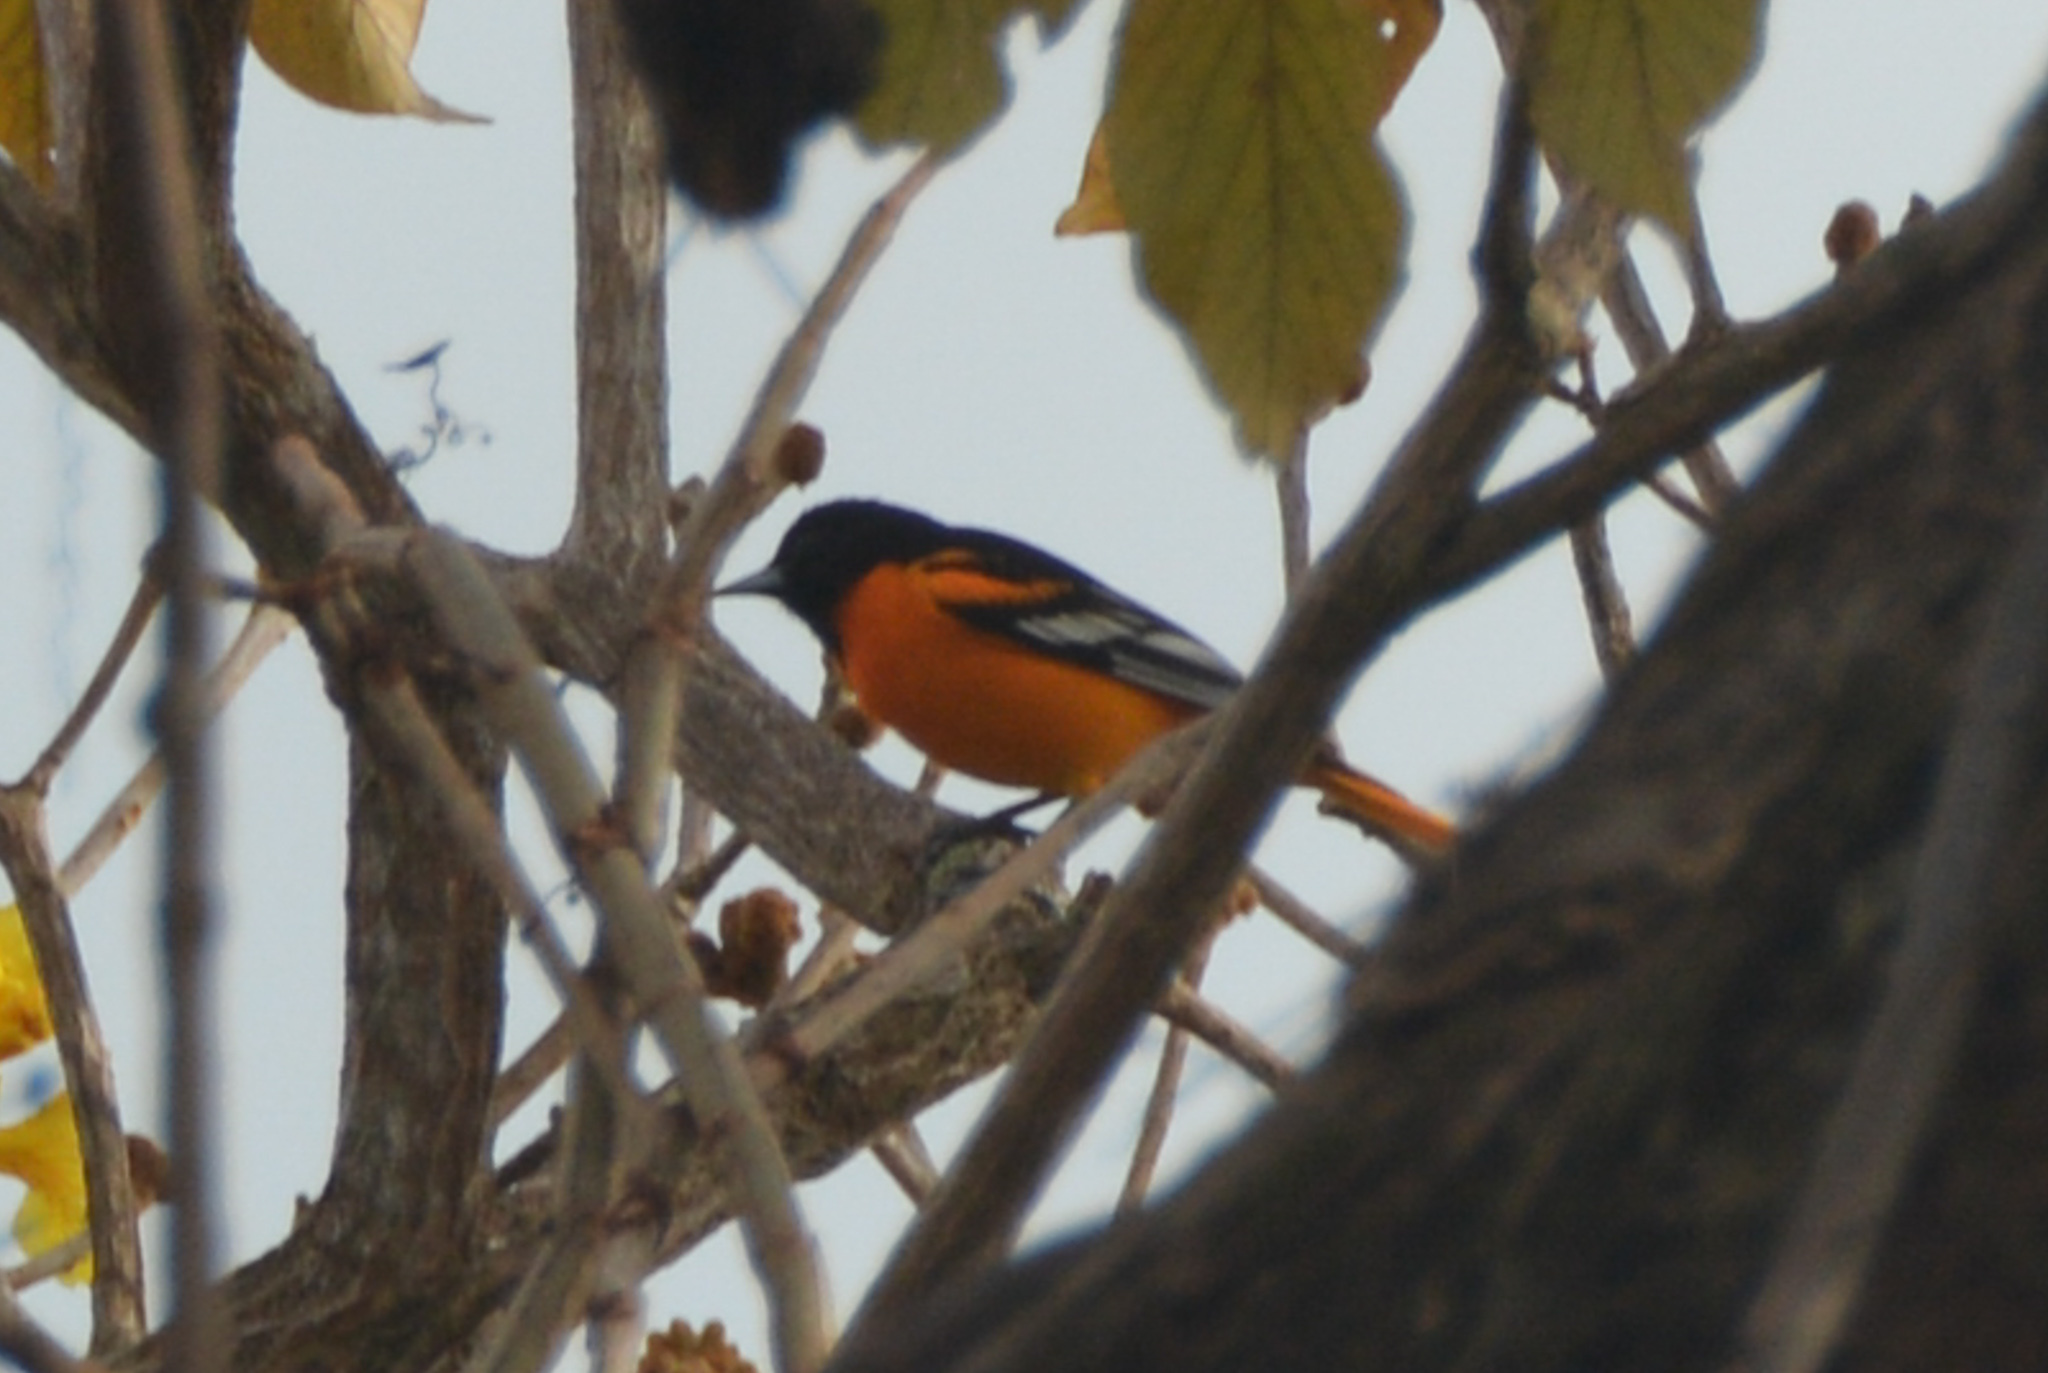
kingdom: Animalia
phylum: Chordata
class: Aves
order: Passeriformes
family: Icteridae
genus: Icterus
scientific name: Icterus galbula
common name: Baltimore oriole
